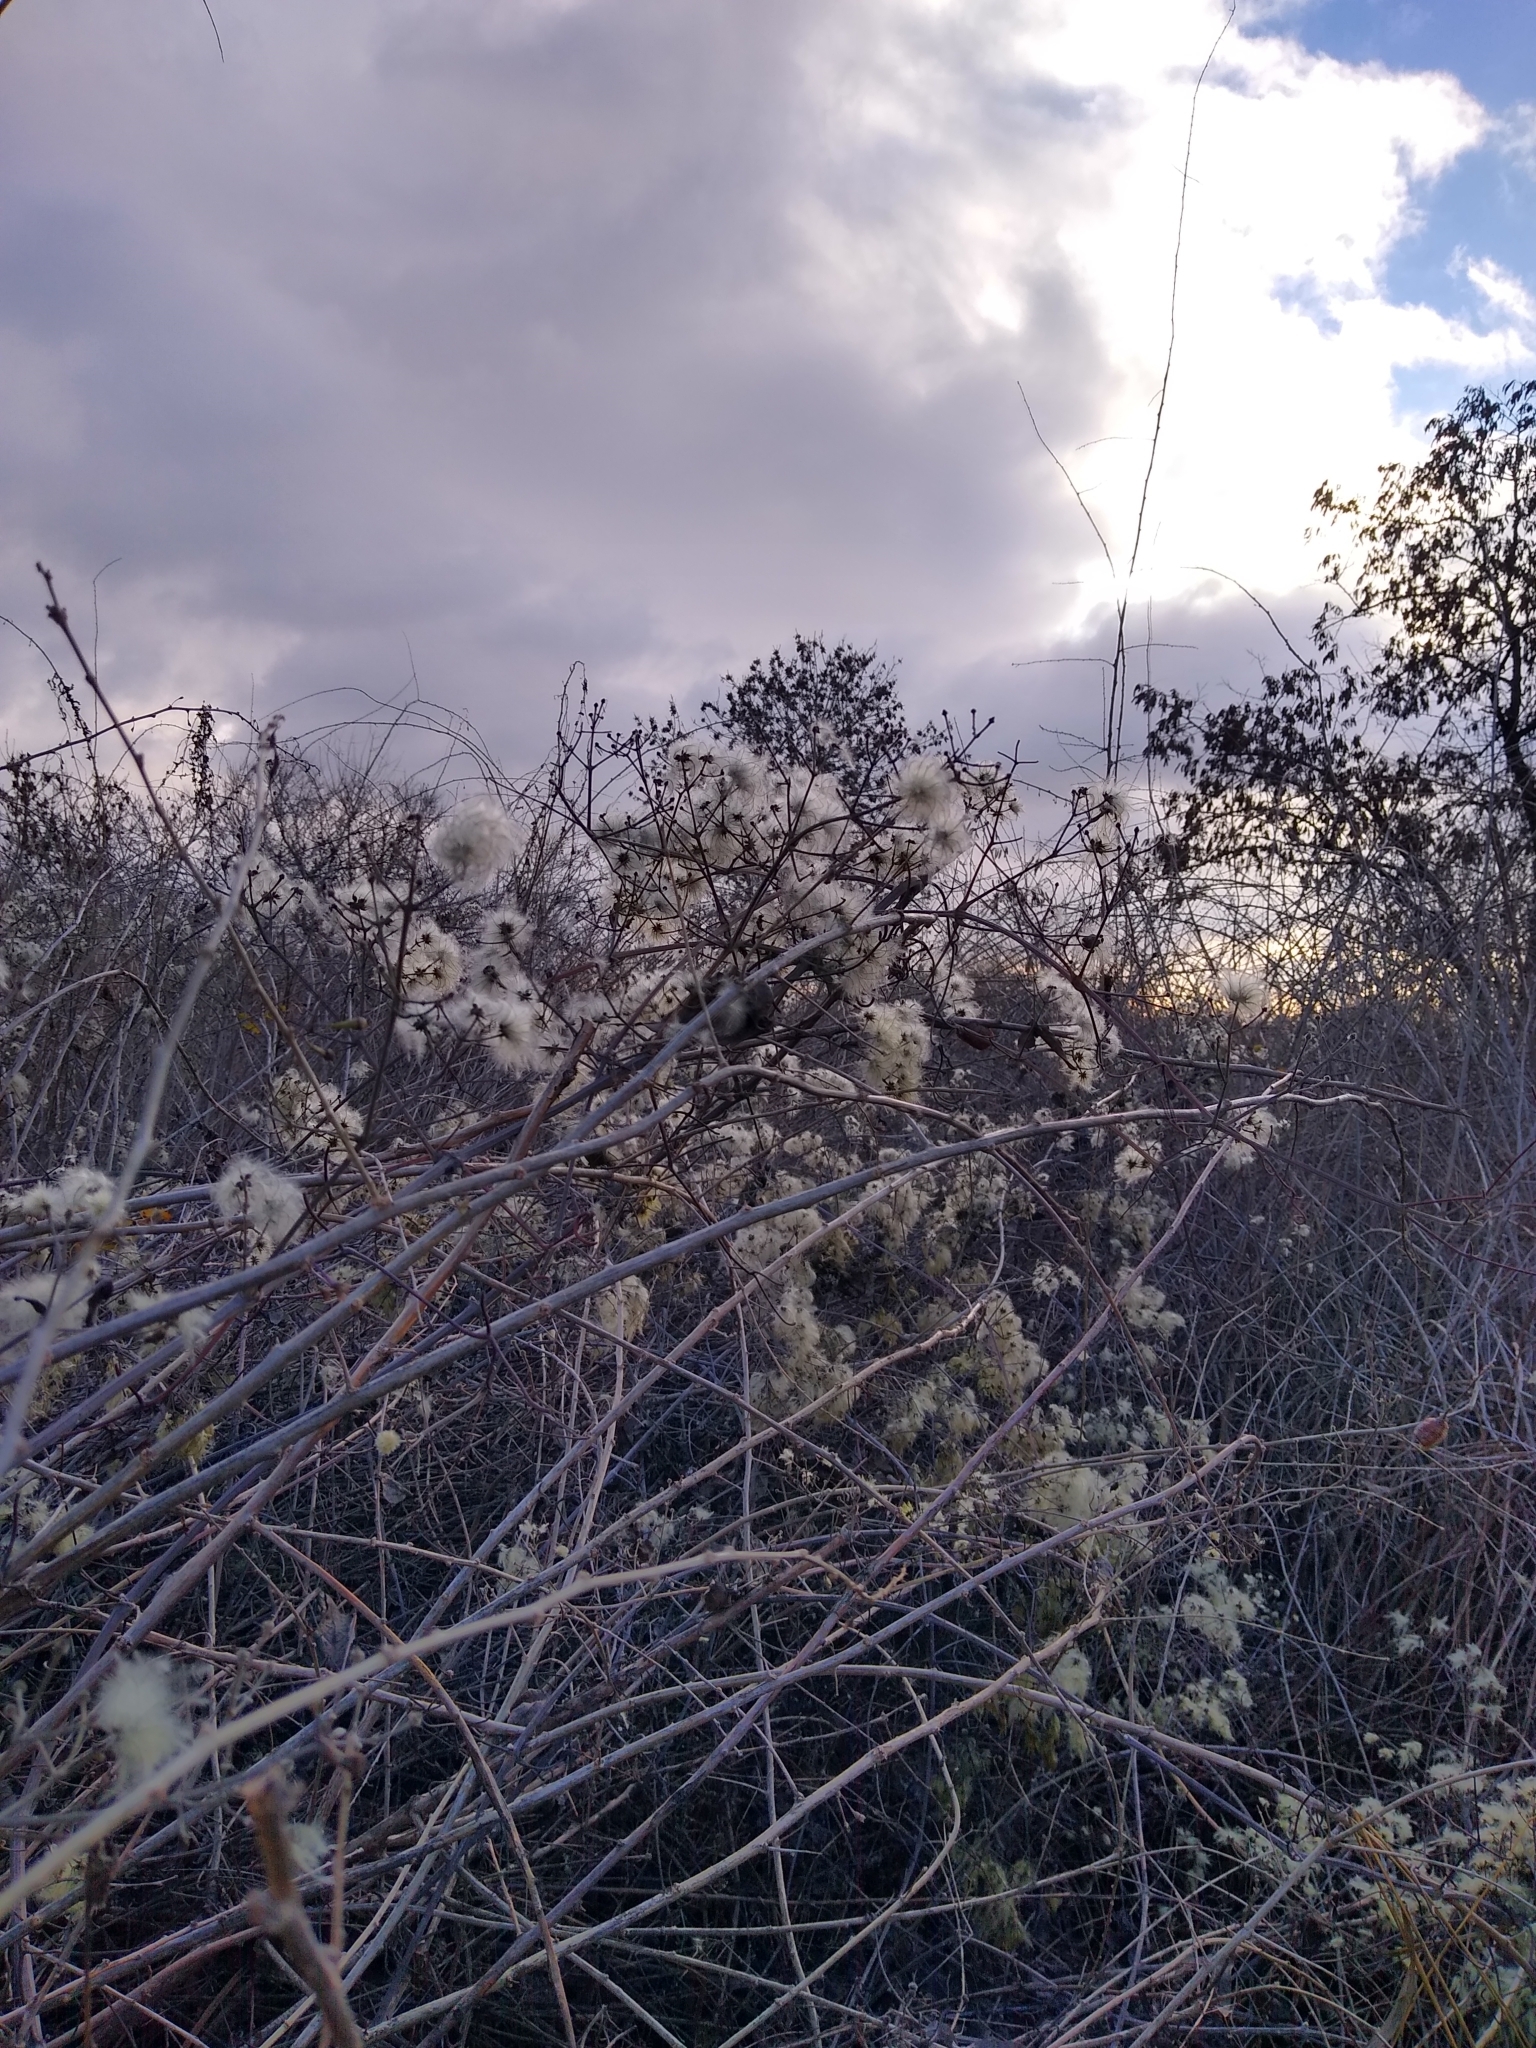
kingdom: Plantae
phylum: Tracheophyta
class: Magnoliopsida
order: Ranunculales
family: Ranunculaceae
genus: Clematis
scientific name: Clematis vitalba
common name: Evergreen clematis
